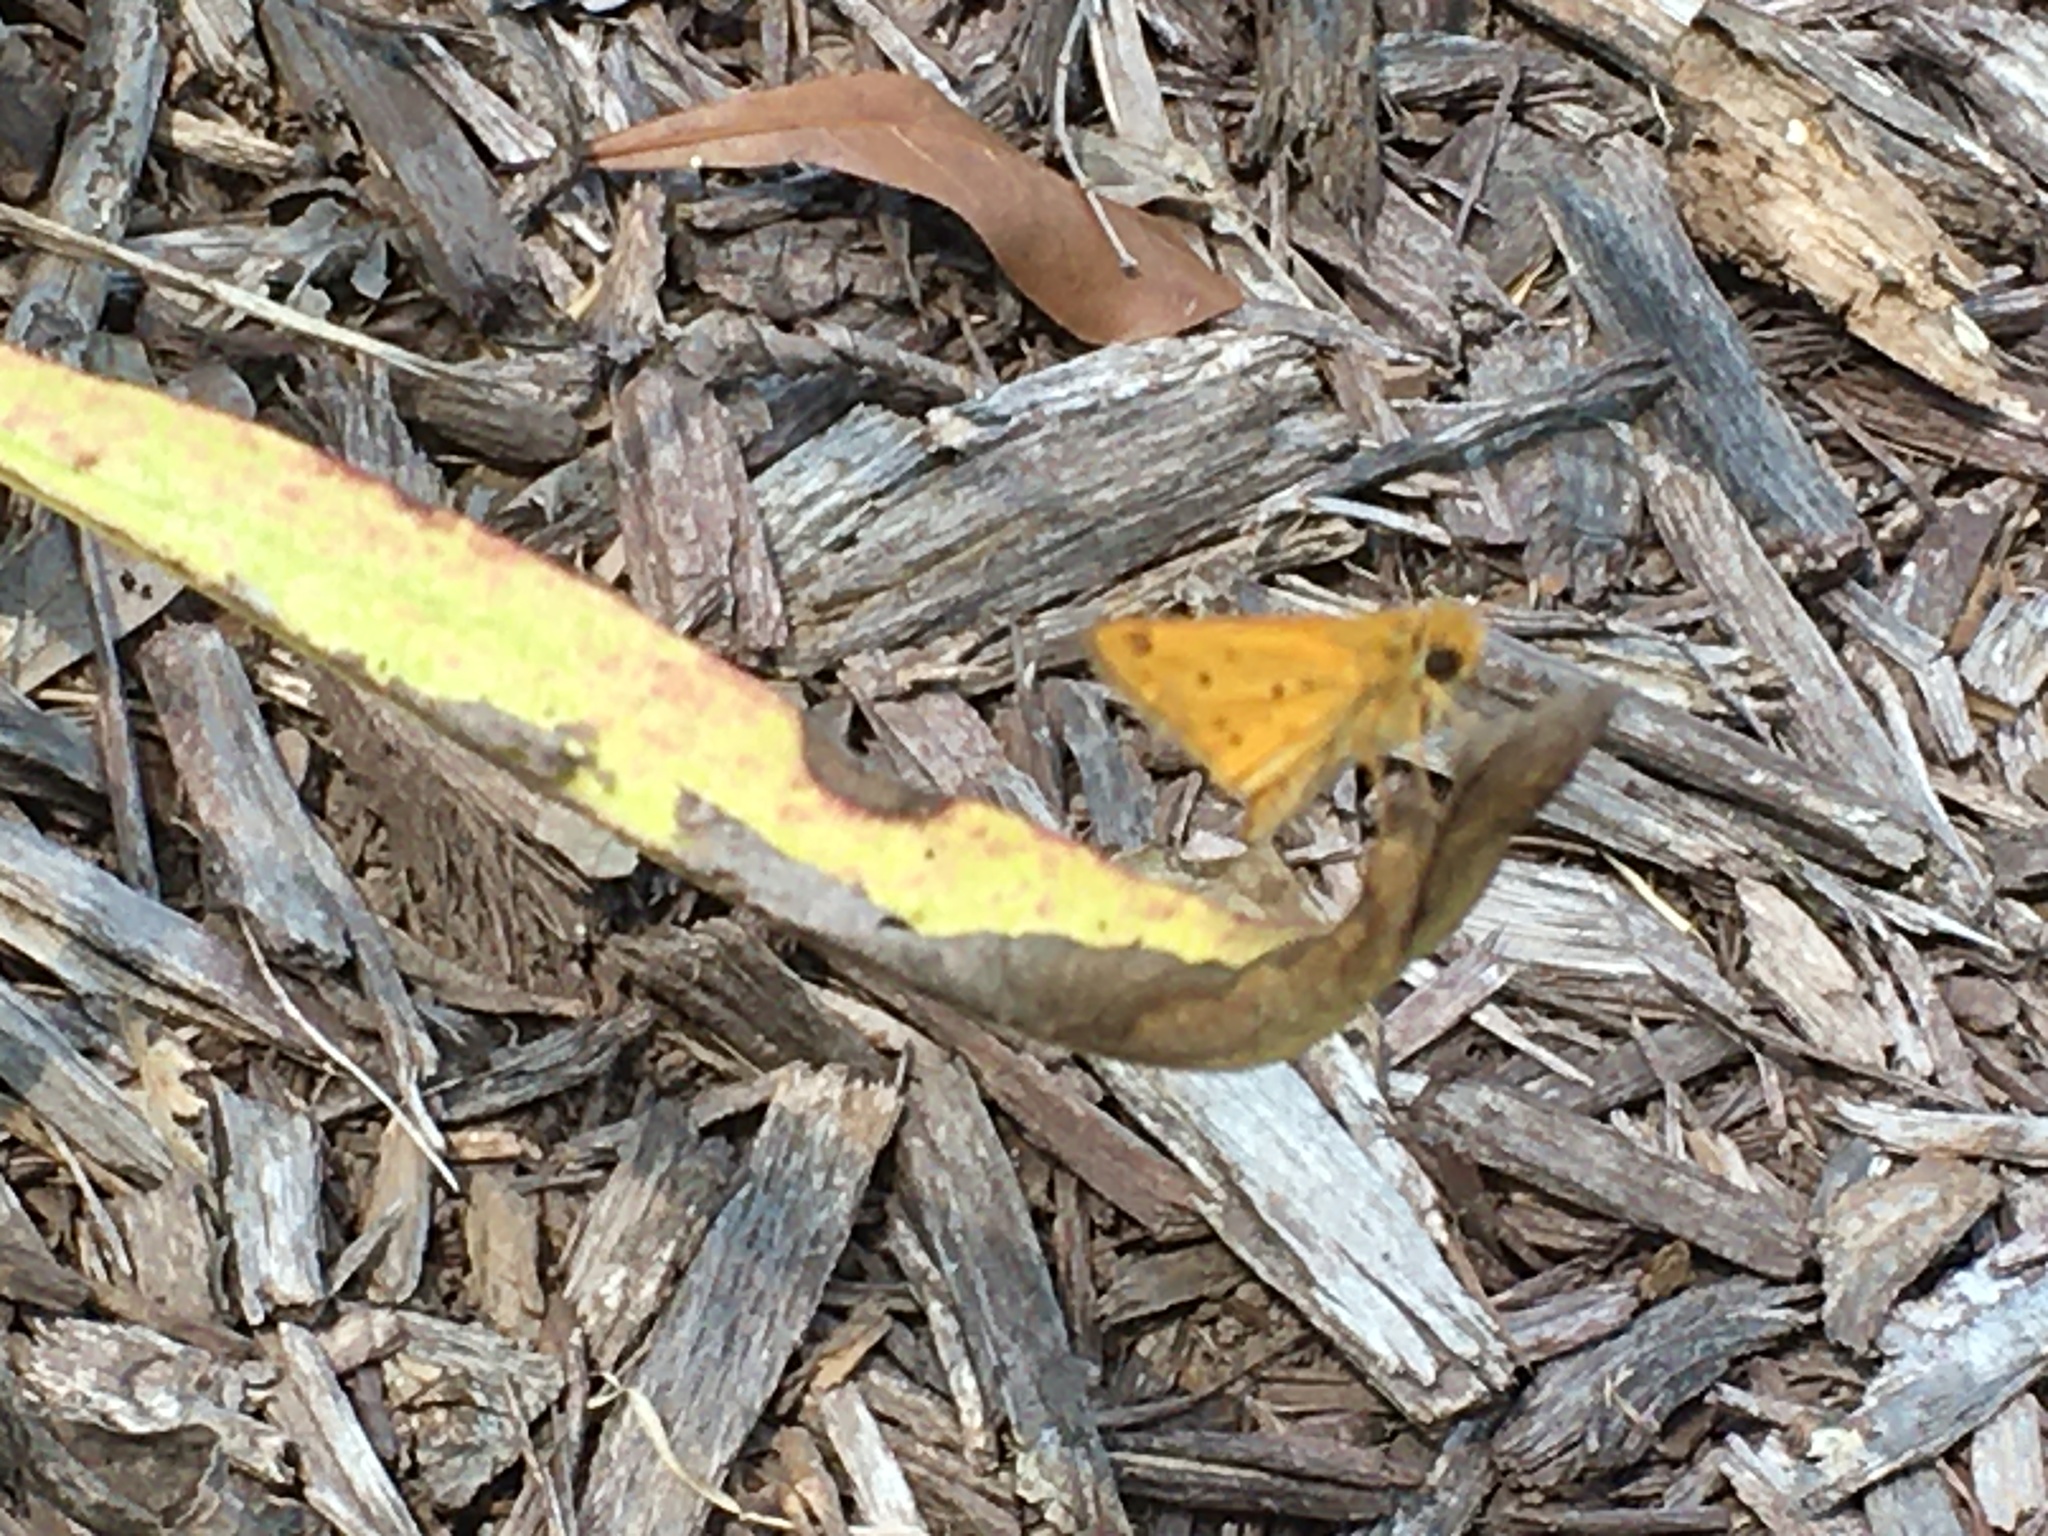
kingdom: Animalia
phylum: Arthropoda
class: Insecta
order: Lepidoptera
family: Hesperiidae
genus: Hylephila
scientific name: Hylephila phyleus
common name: Fiery skipper
